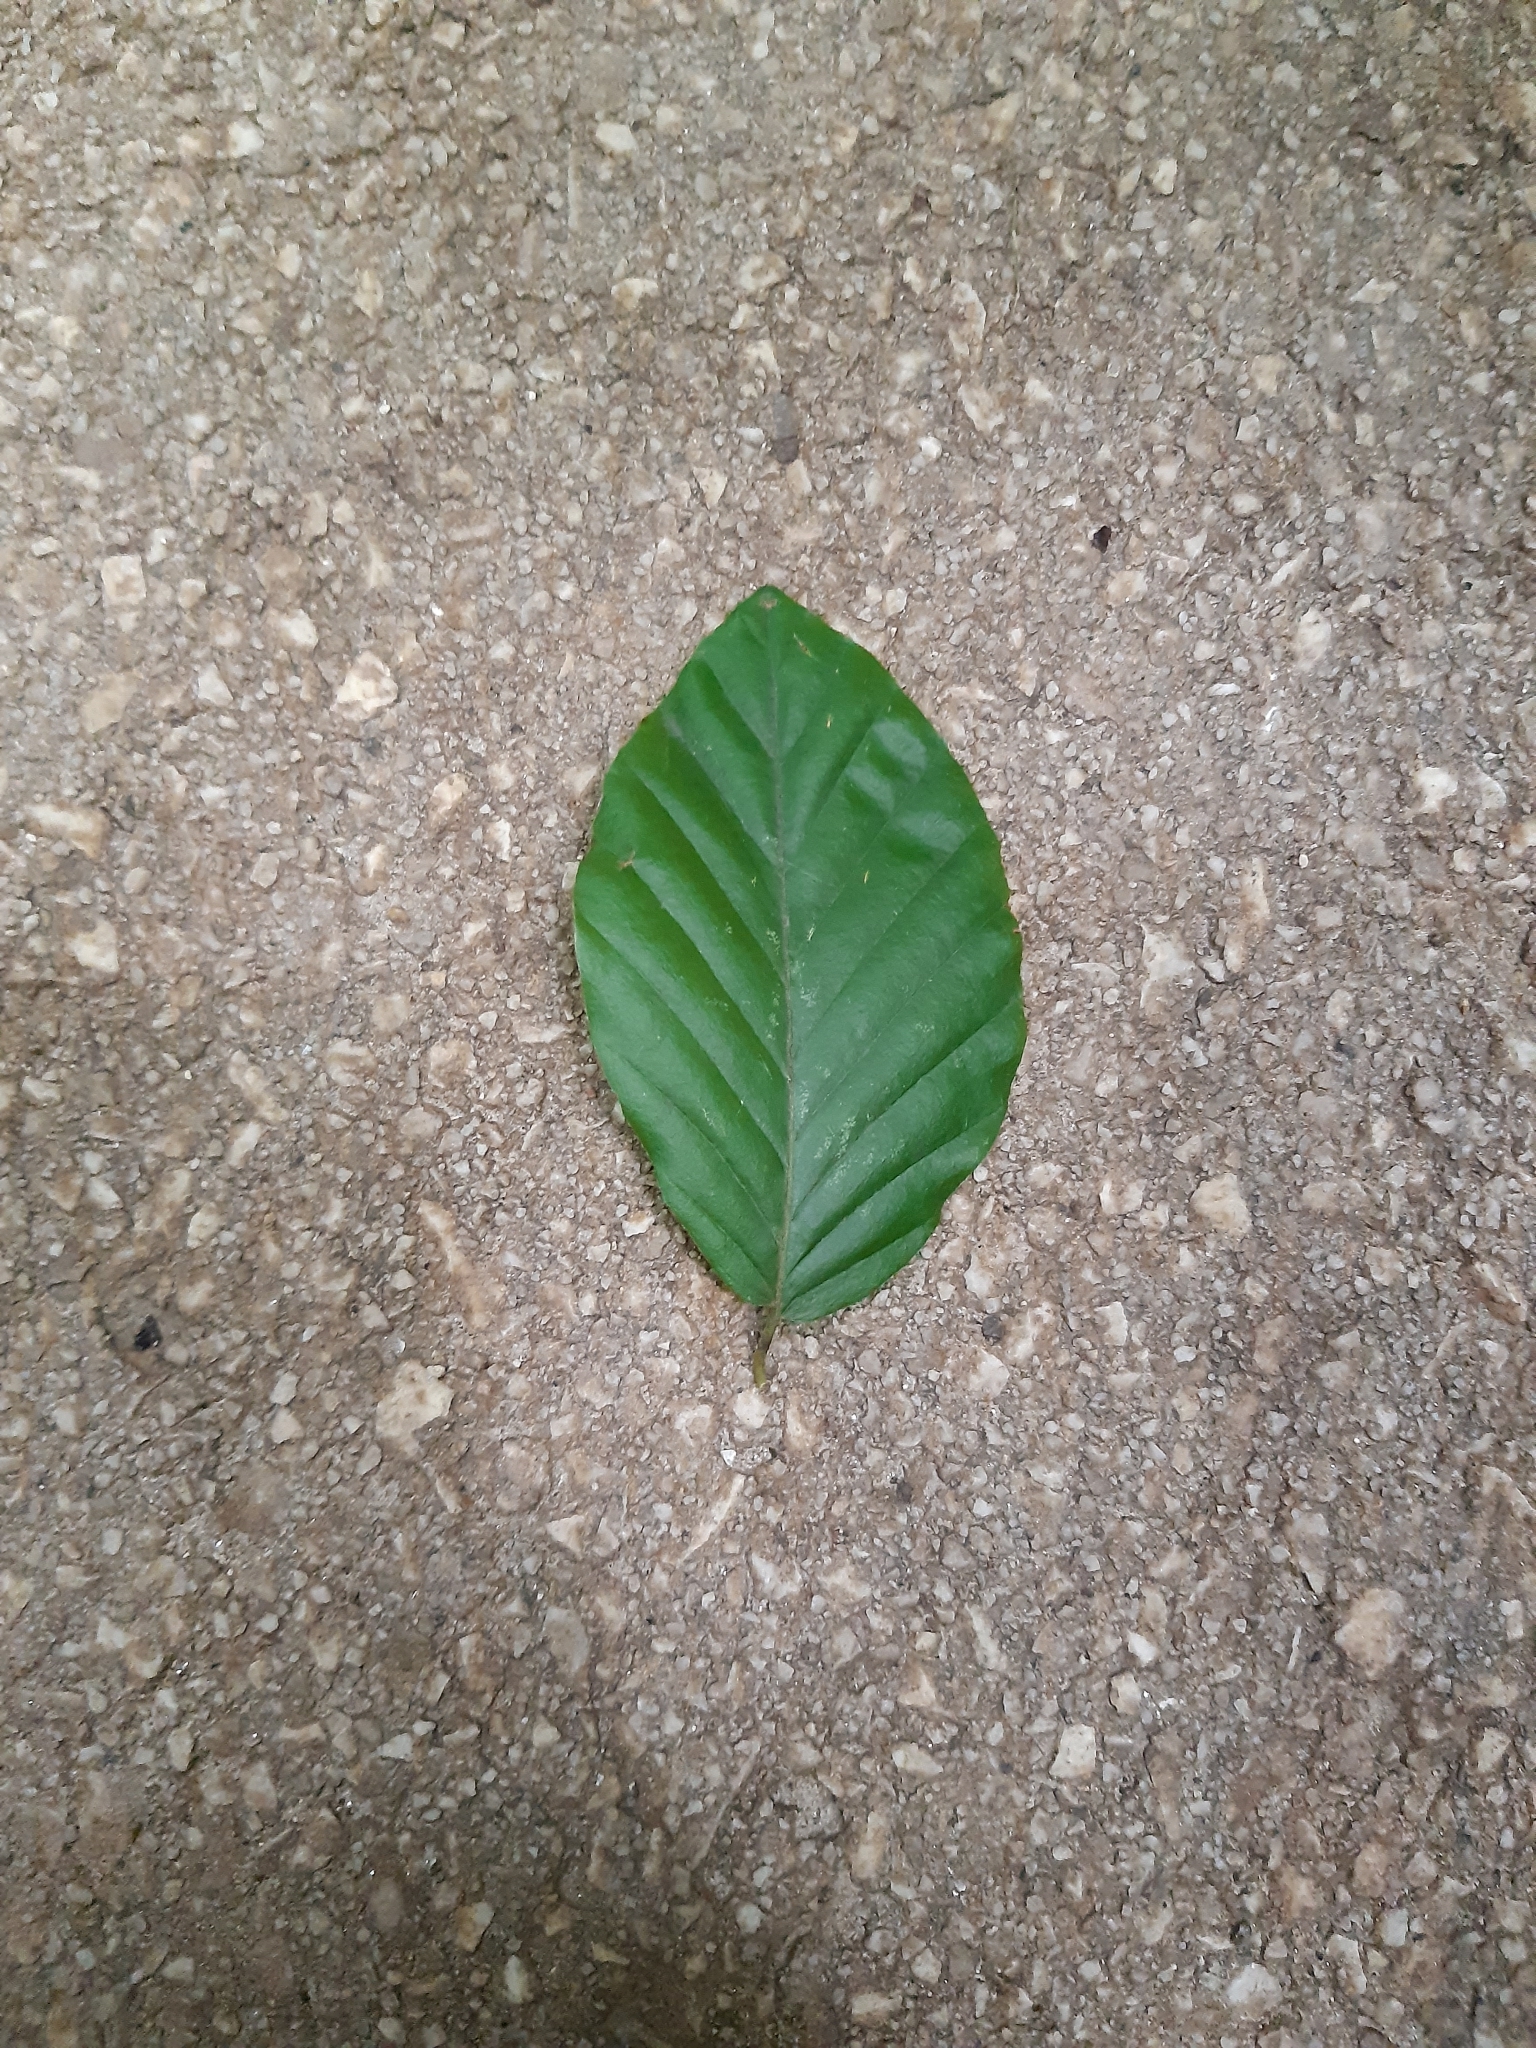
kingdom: Plantae
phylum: Tracheophyta
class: Magnoliopsida
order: Fagales
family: Fagaceae
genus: Fagus
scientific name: Fagus sylvatica
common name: Beech
